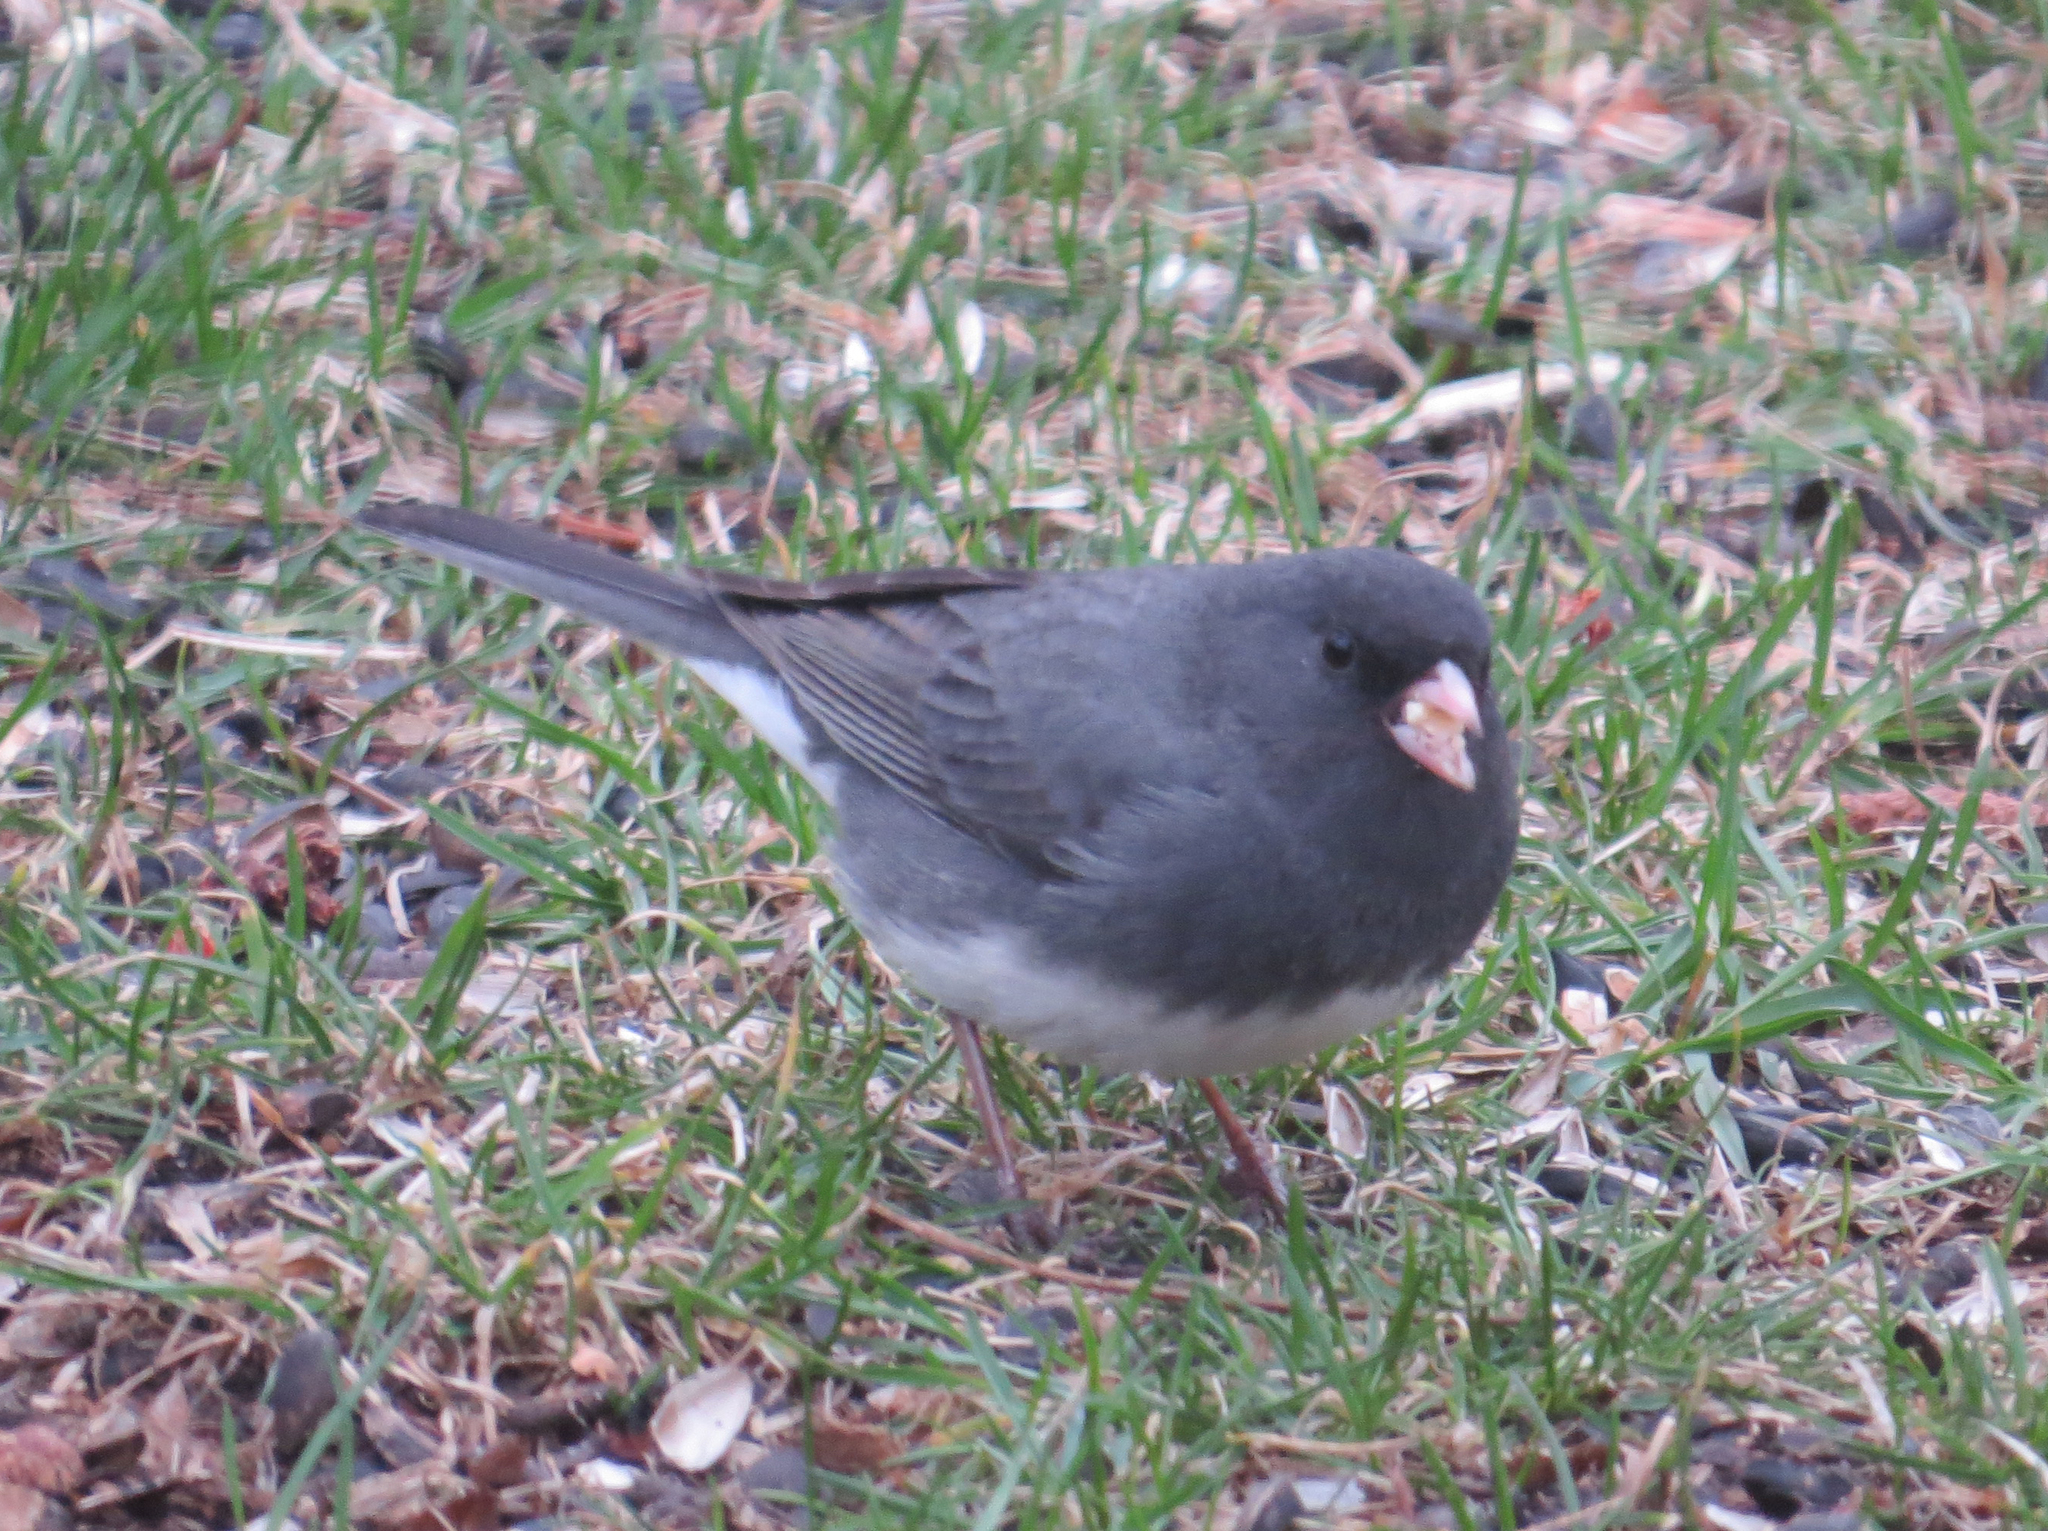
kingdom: Animalia
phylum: Chordata
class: Aves
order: Passeriformes
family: Passerellidae
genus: Junco
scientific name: Junco hyemalis
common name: Dark-eyed junco
